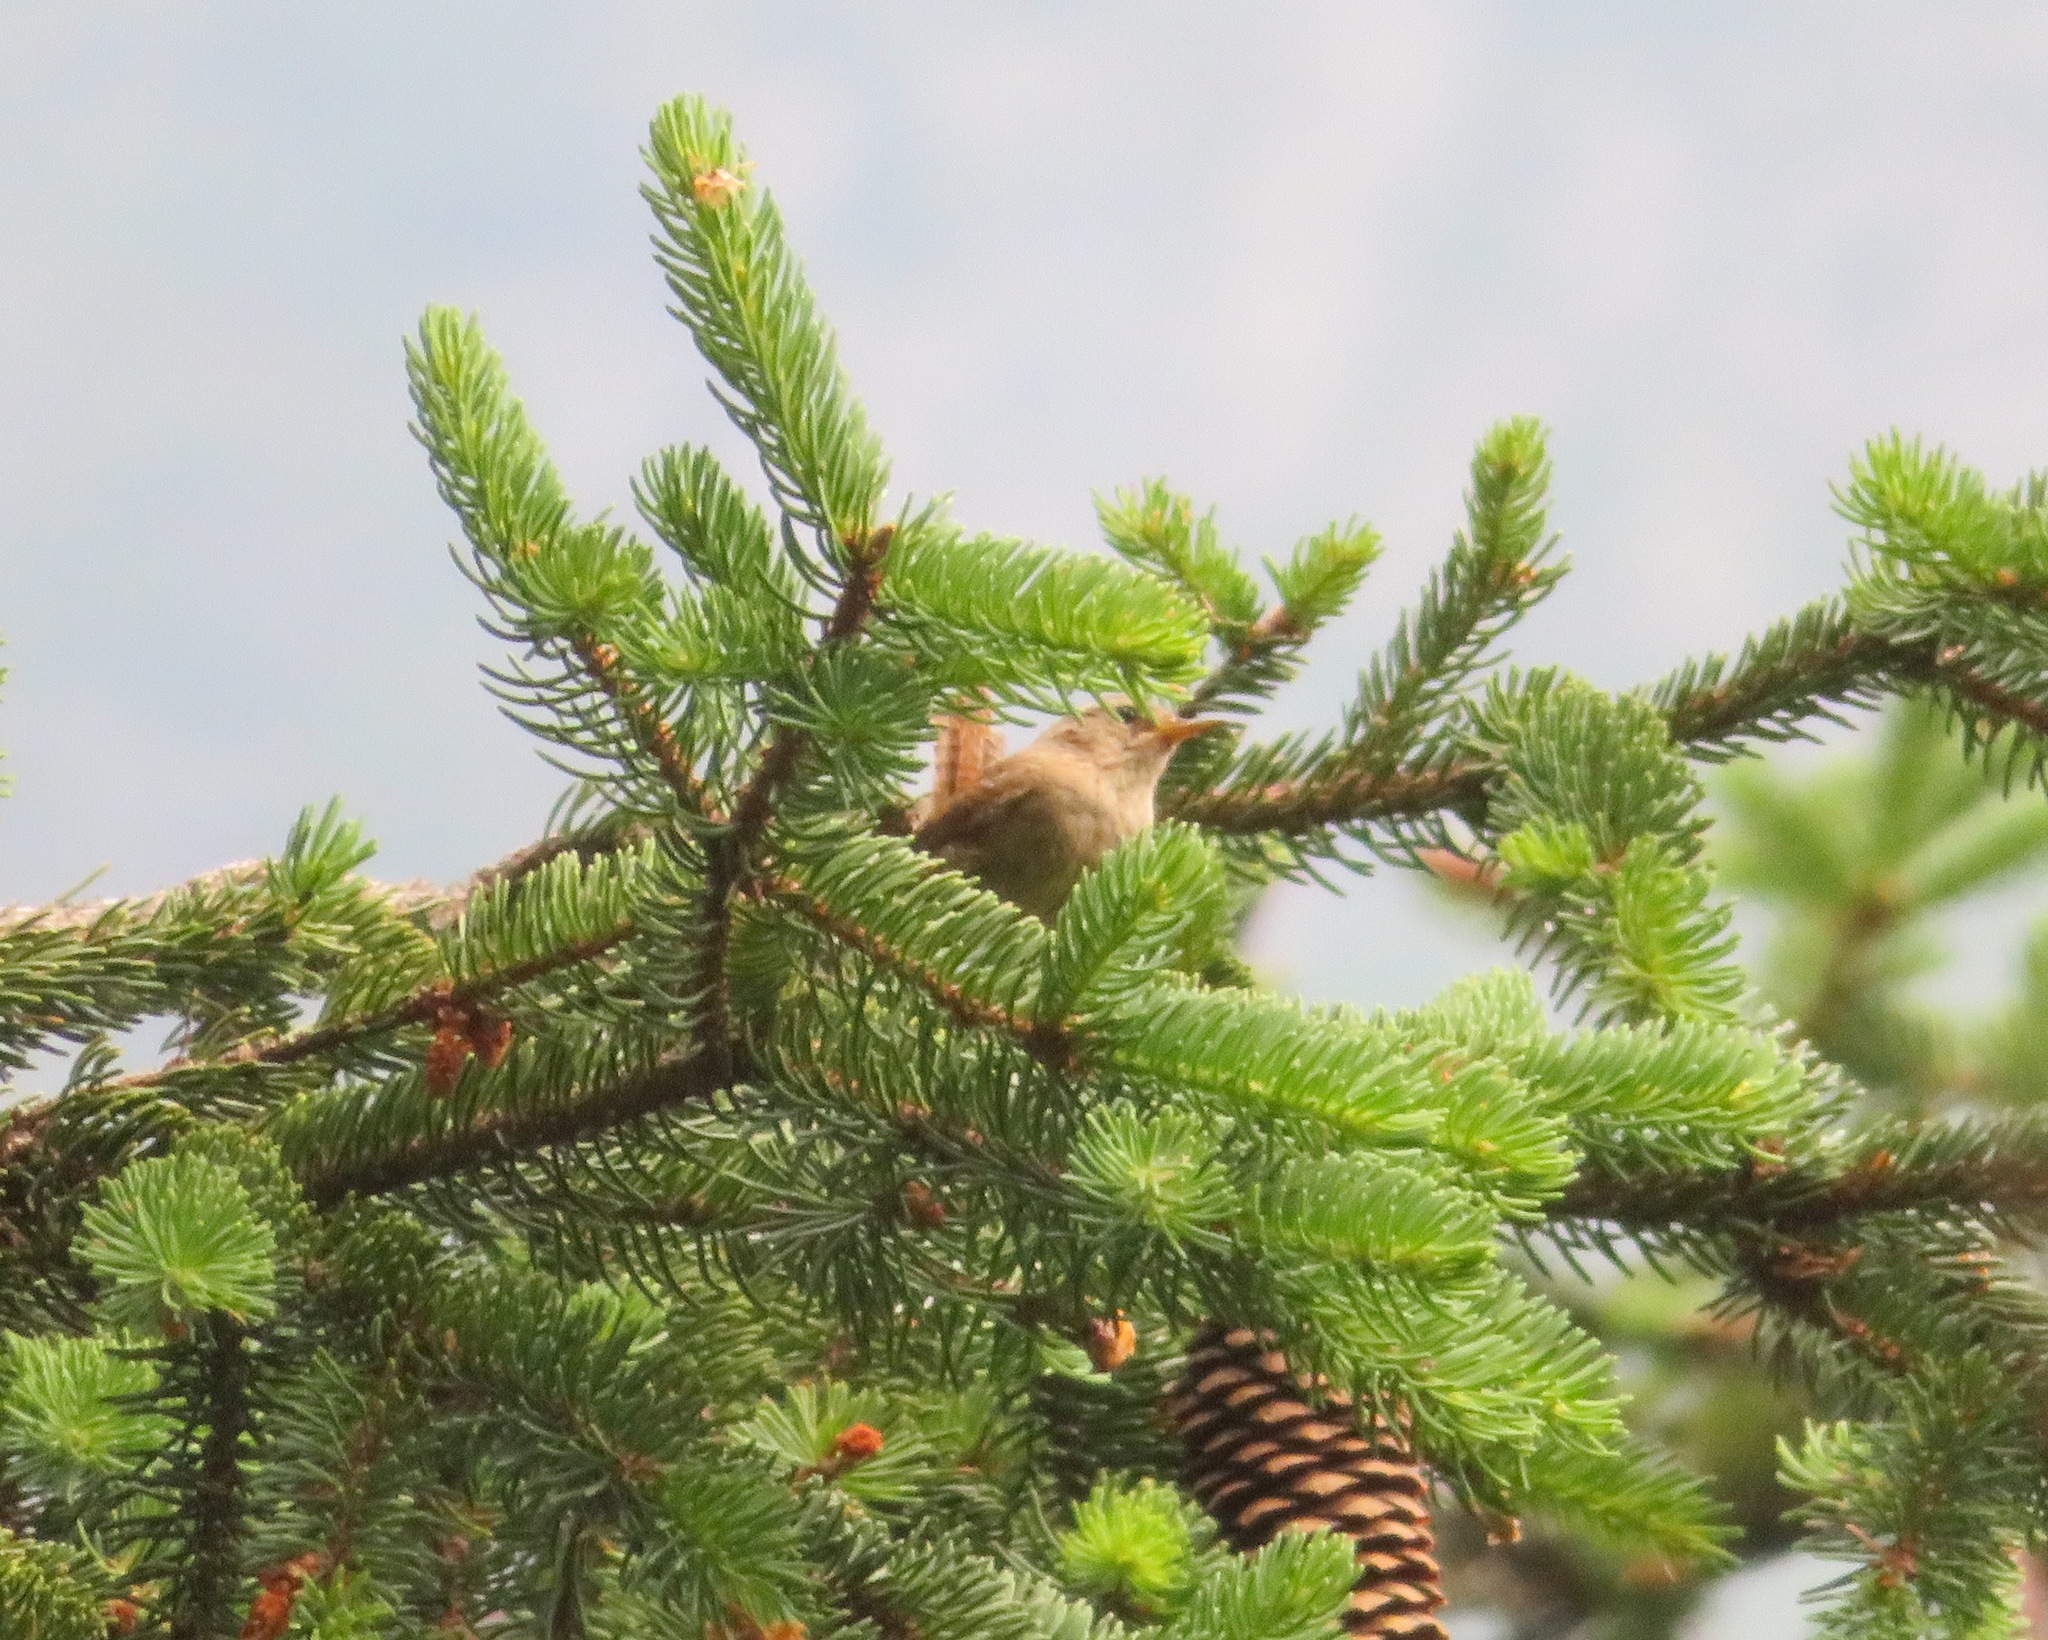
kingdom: Animalia
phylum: Chordata
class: Aves
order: Passeriformes
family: Troglodytidae
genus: Troglodytes
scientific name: Troglodytes troglodytes
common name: Eurasian wren
